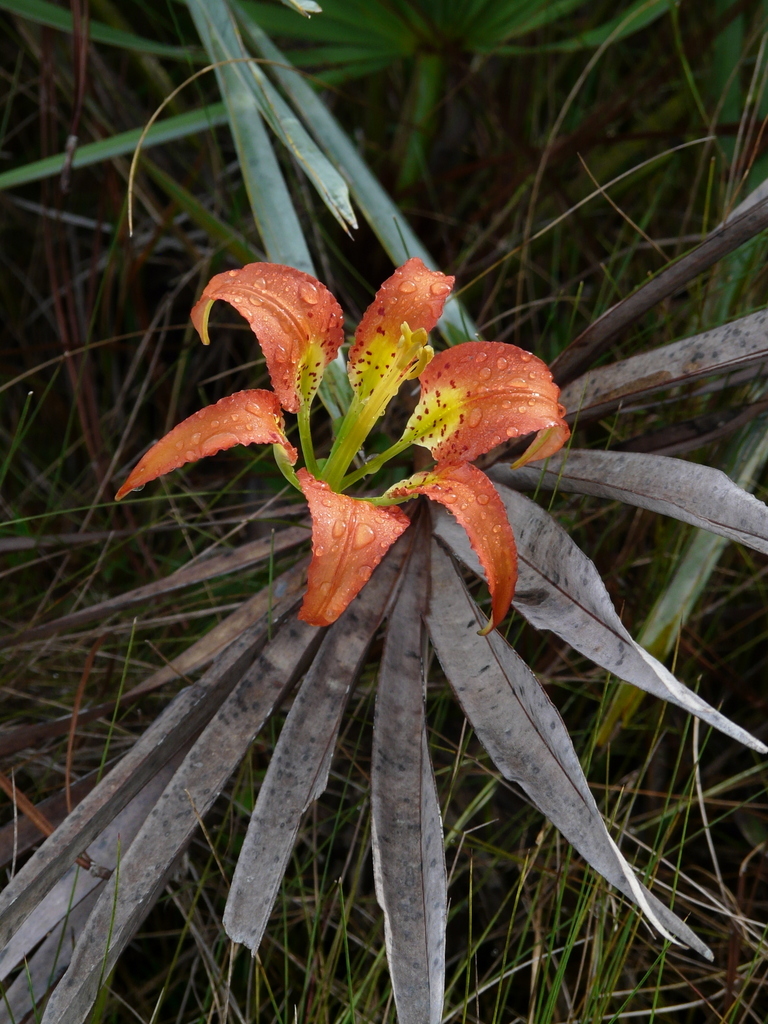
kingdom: Plantae
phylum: Tracheophyta
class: Liliopsida
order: Liliales
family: Liliaceae
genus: Lilium
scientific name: Lilium catesbaei
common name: Catesby's lily
